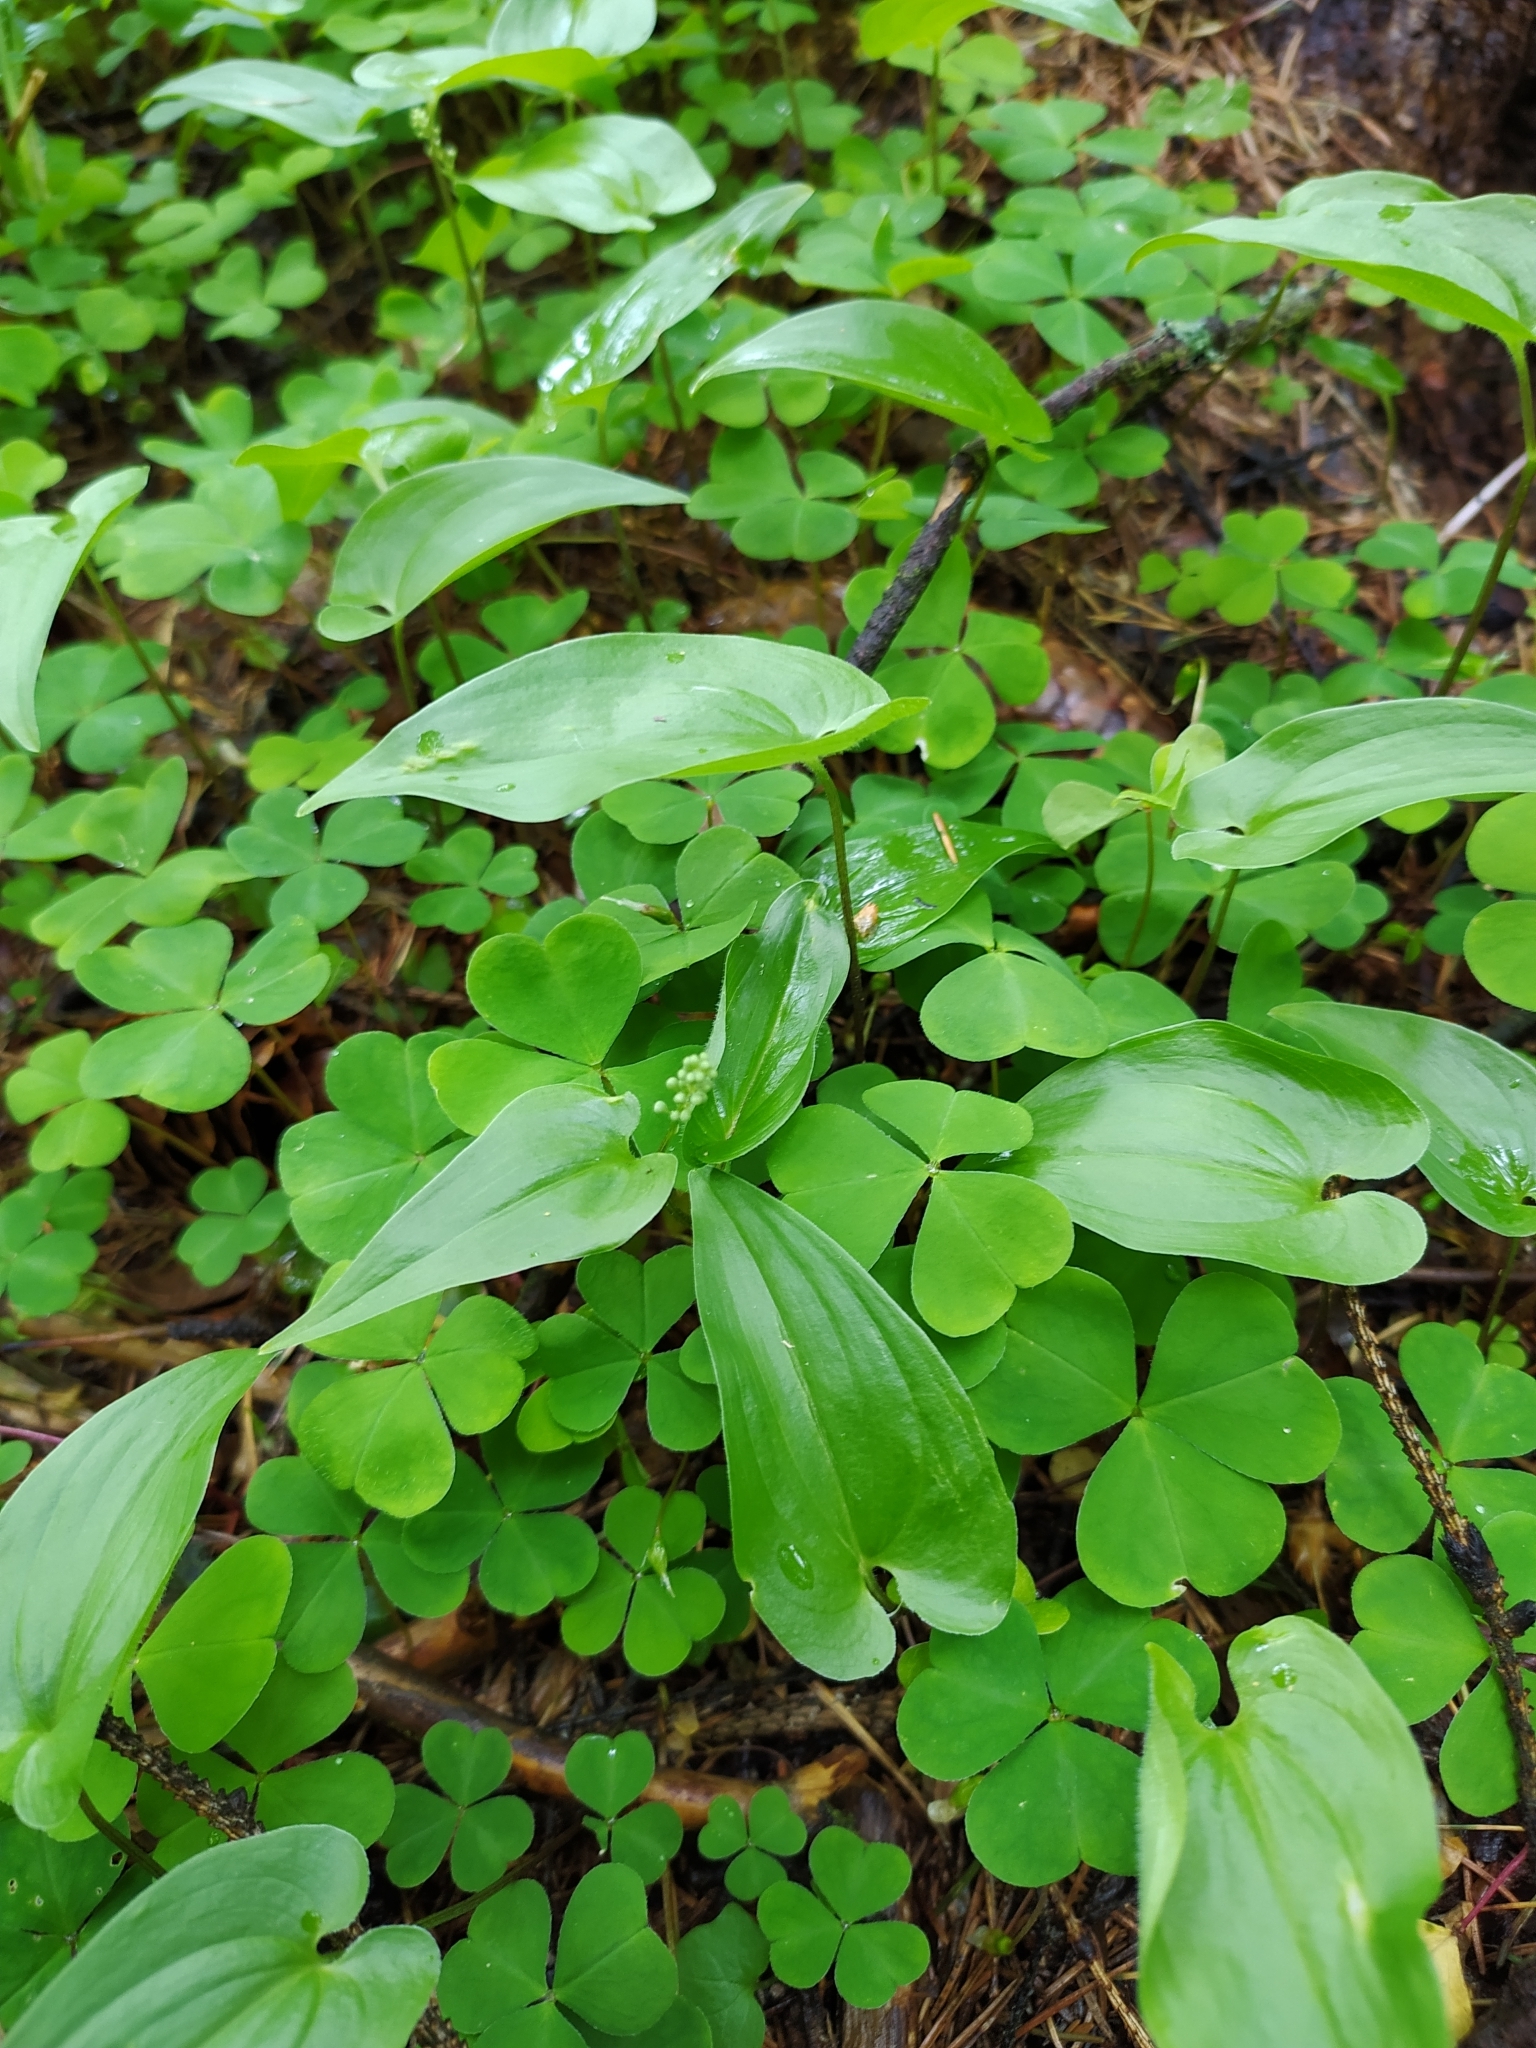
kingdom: Plantae
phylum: Tracheophyta
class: Liliopsida
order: Asparagales
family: Asparagaceae
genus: Maianthemum
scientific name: Maianthemum bifolium
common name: May lily
